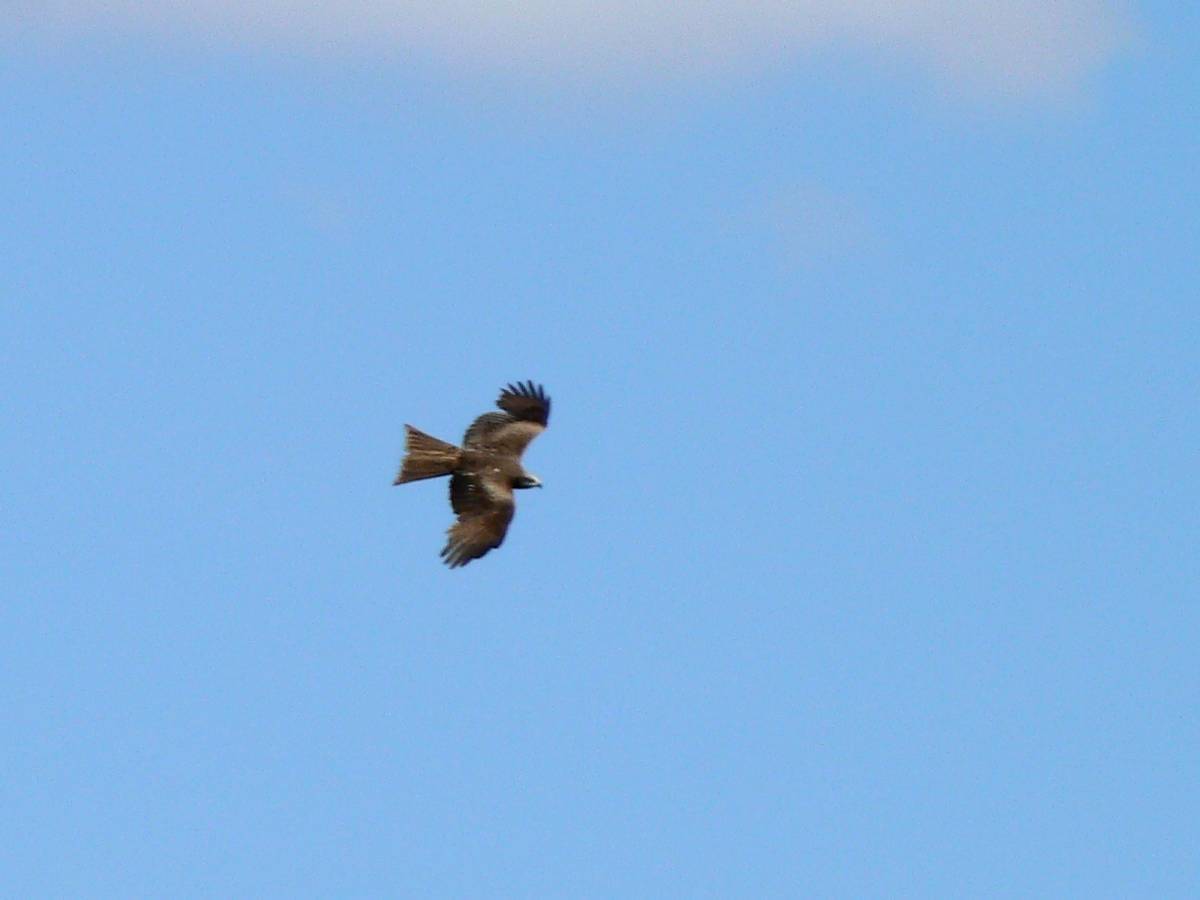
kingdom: Animalia
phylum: Chordata
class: Aves
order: Accipitriformes
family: Accipitridae
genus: Milvus
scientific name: Milvus migrans
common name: Black kite
